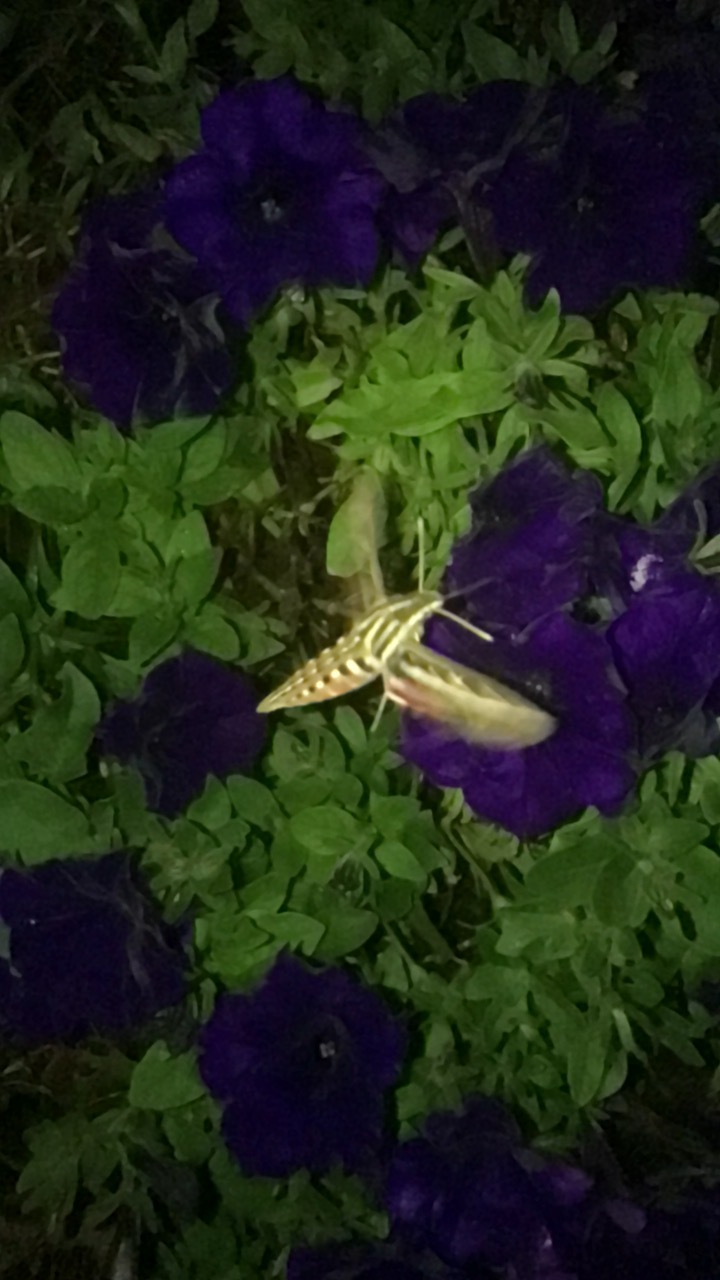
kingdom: Animalia
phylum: Arthropoda
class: Insecta
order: Lepidoptera
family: Sphingidae
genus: Hyles
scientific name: Hyles lineata
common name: White-lined sphinx
